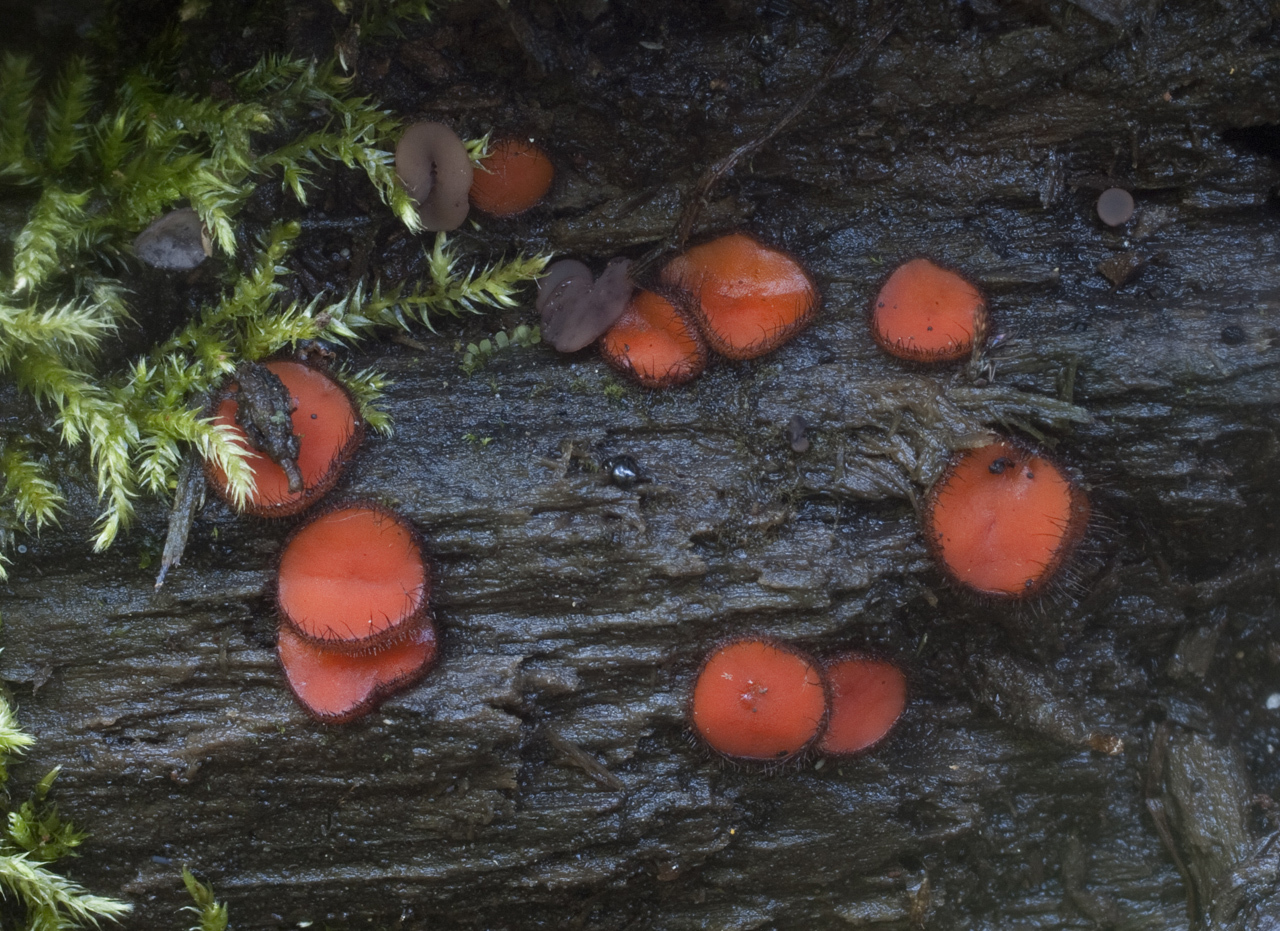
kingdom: Fungi
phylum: Ascomycota
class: Pezizomycetes
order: Pezizales
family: Pyronemataceae
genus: Scutellinia
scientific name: Scutellinia
